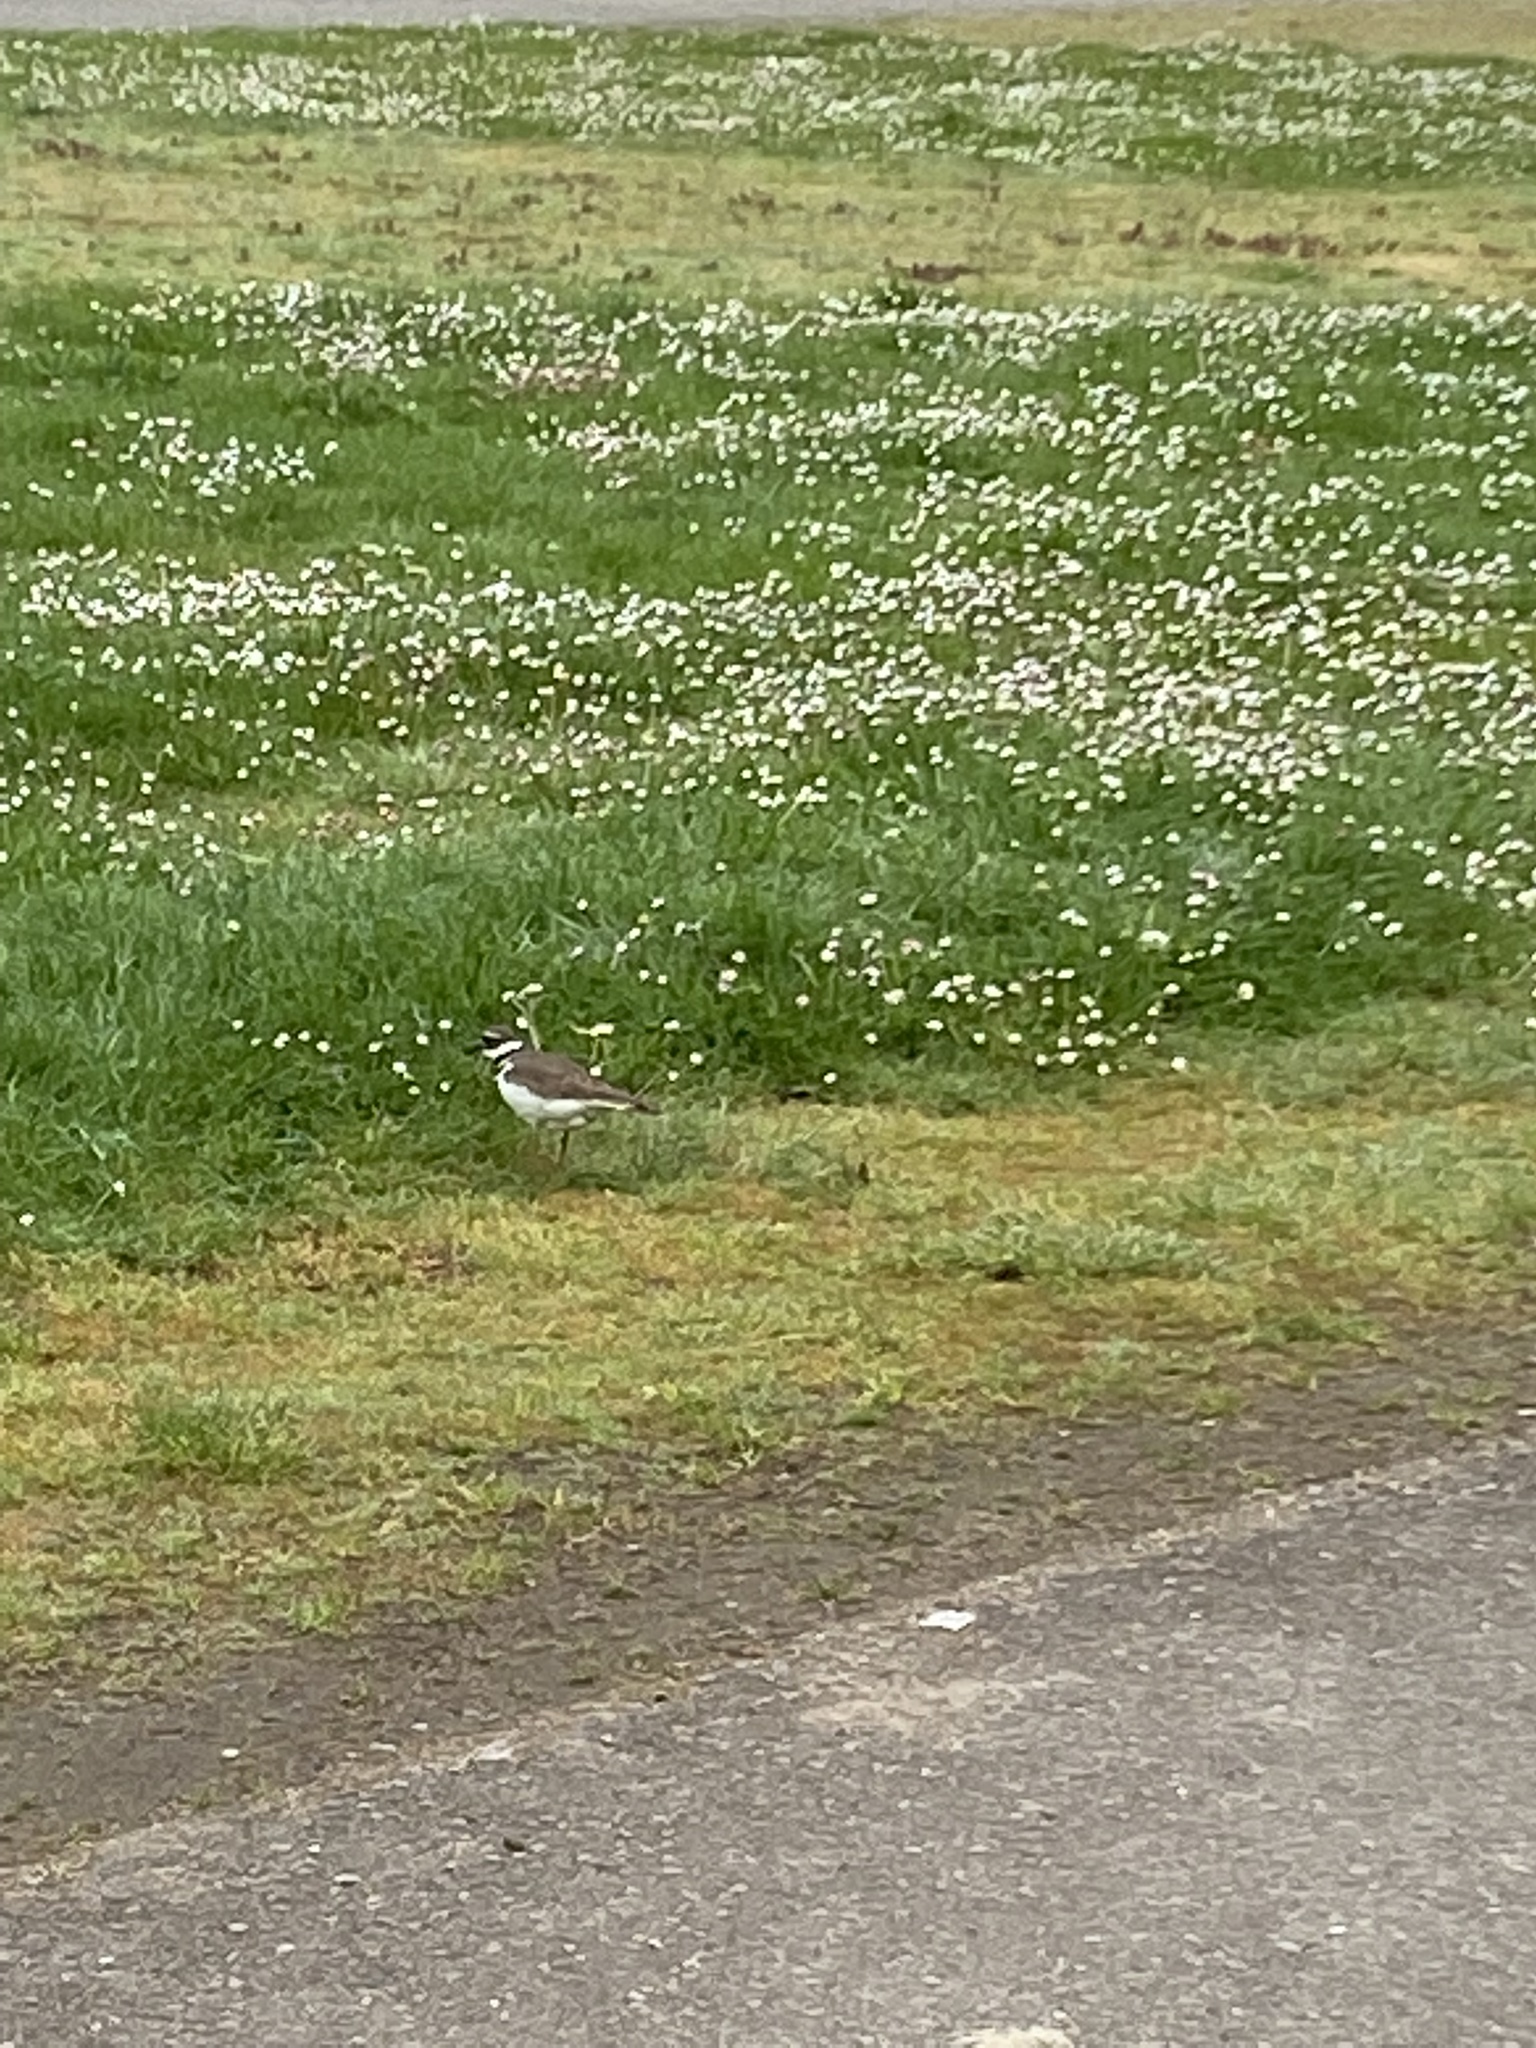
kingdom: Animalia
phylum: Chordata
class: Aves
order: Charadriiformes
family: Charadriidae
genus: Charadrius
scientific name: Charadrius vociferus
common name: Killdeer
